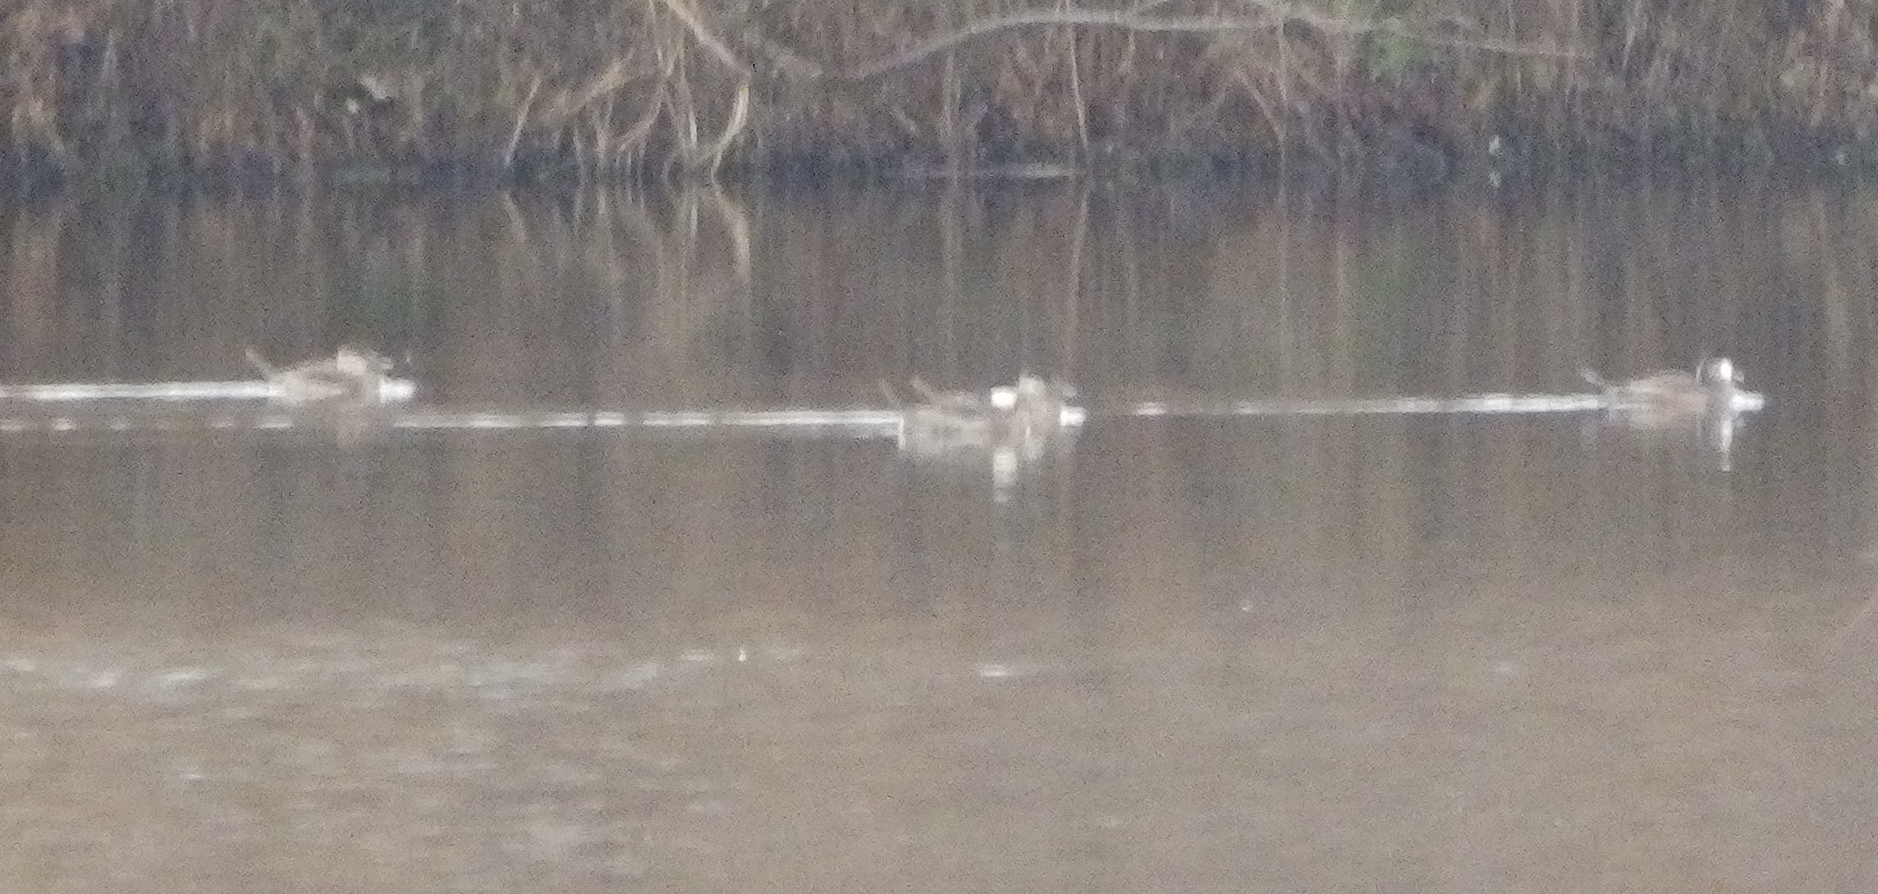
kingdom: Animalia
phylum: Chordata
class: Aves
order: Anseriformes
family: Anatidae
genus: Oxyura
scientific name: Oxyura jamaicensis
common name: Ruddy duck
